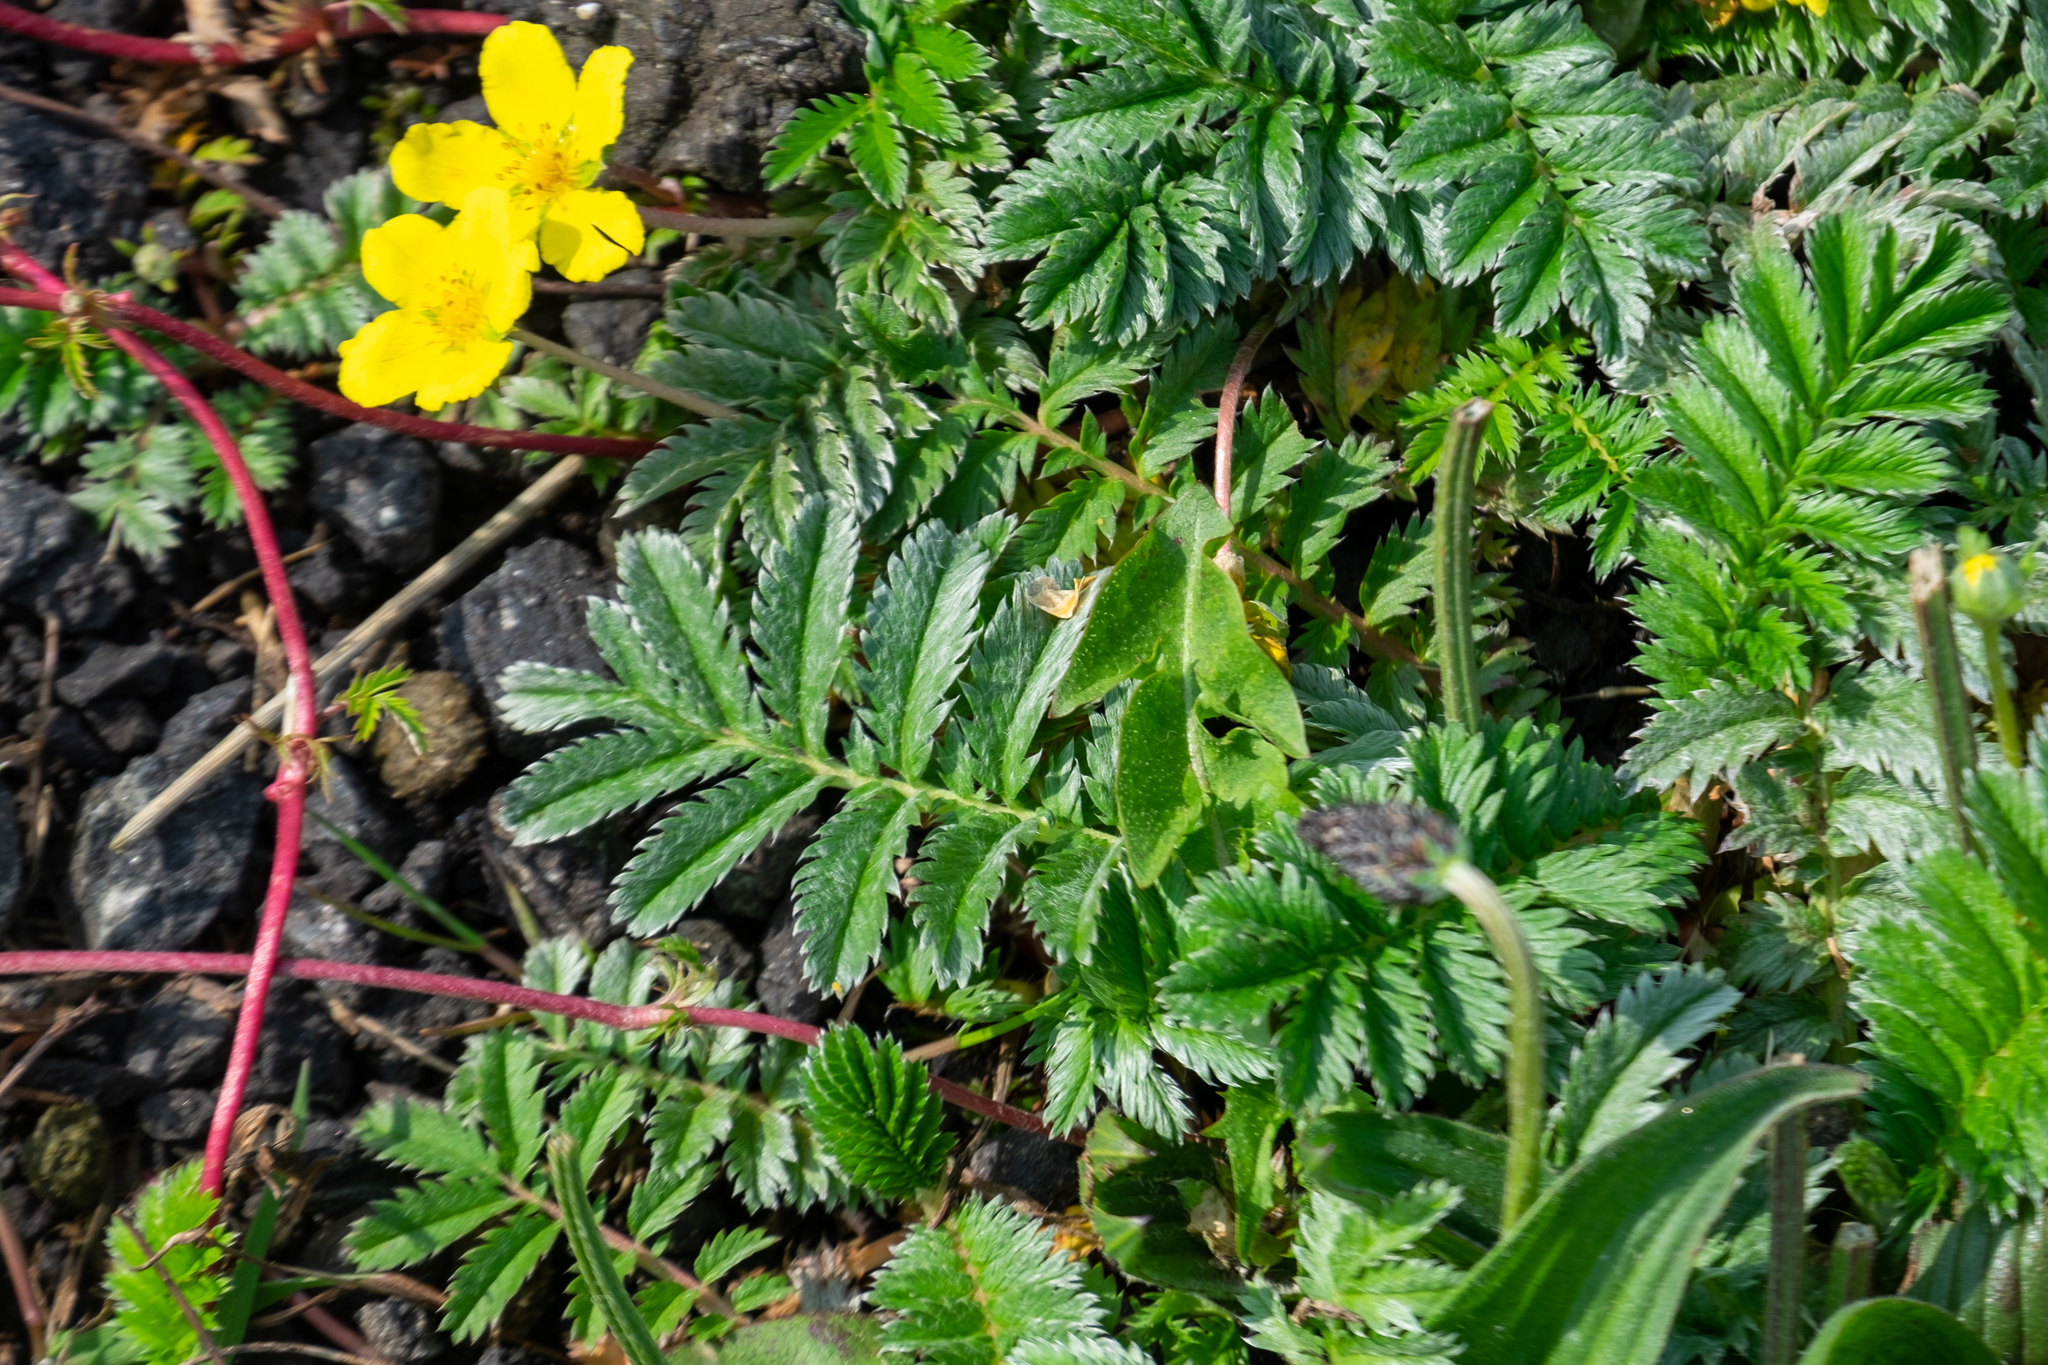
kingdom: Plantae
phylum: Tracheophyta
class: Magnoliopsida
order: Rosales
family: Rosaceae
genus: Argentina
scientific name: Argentina anserina
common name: Common silverweed
